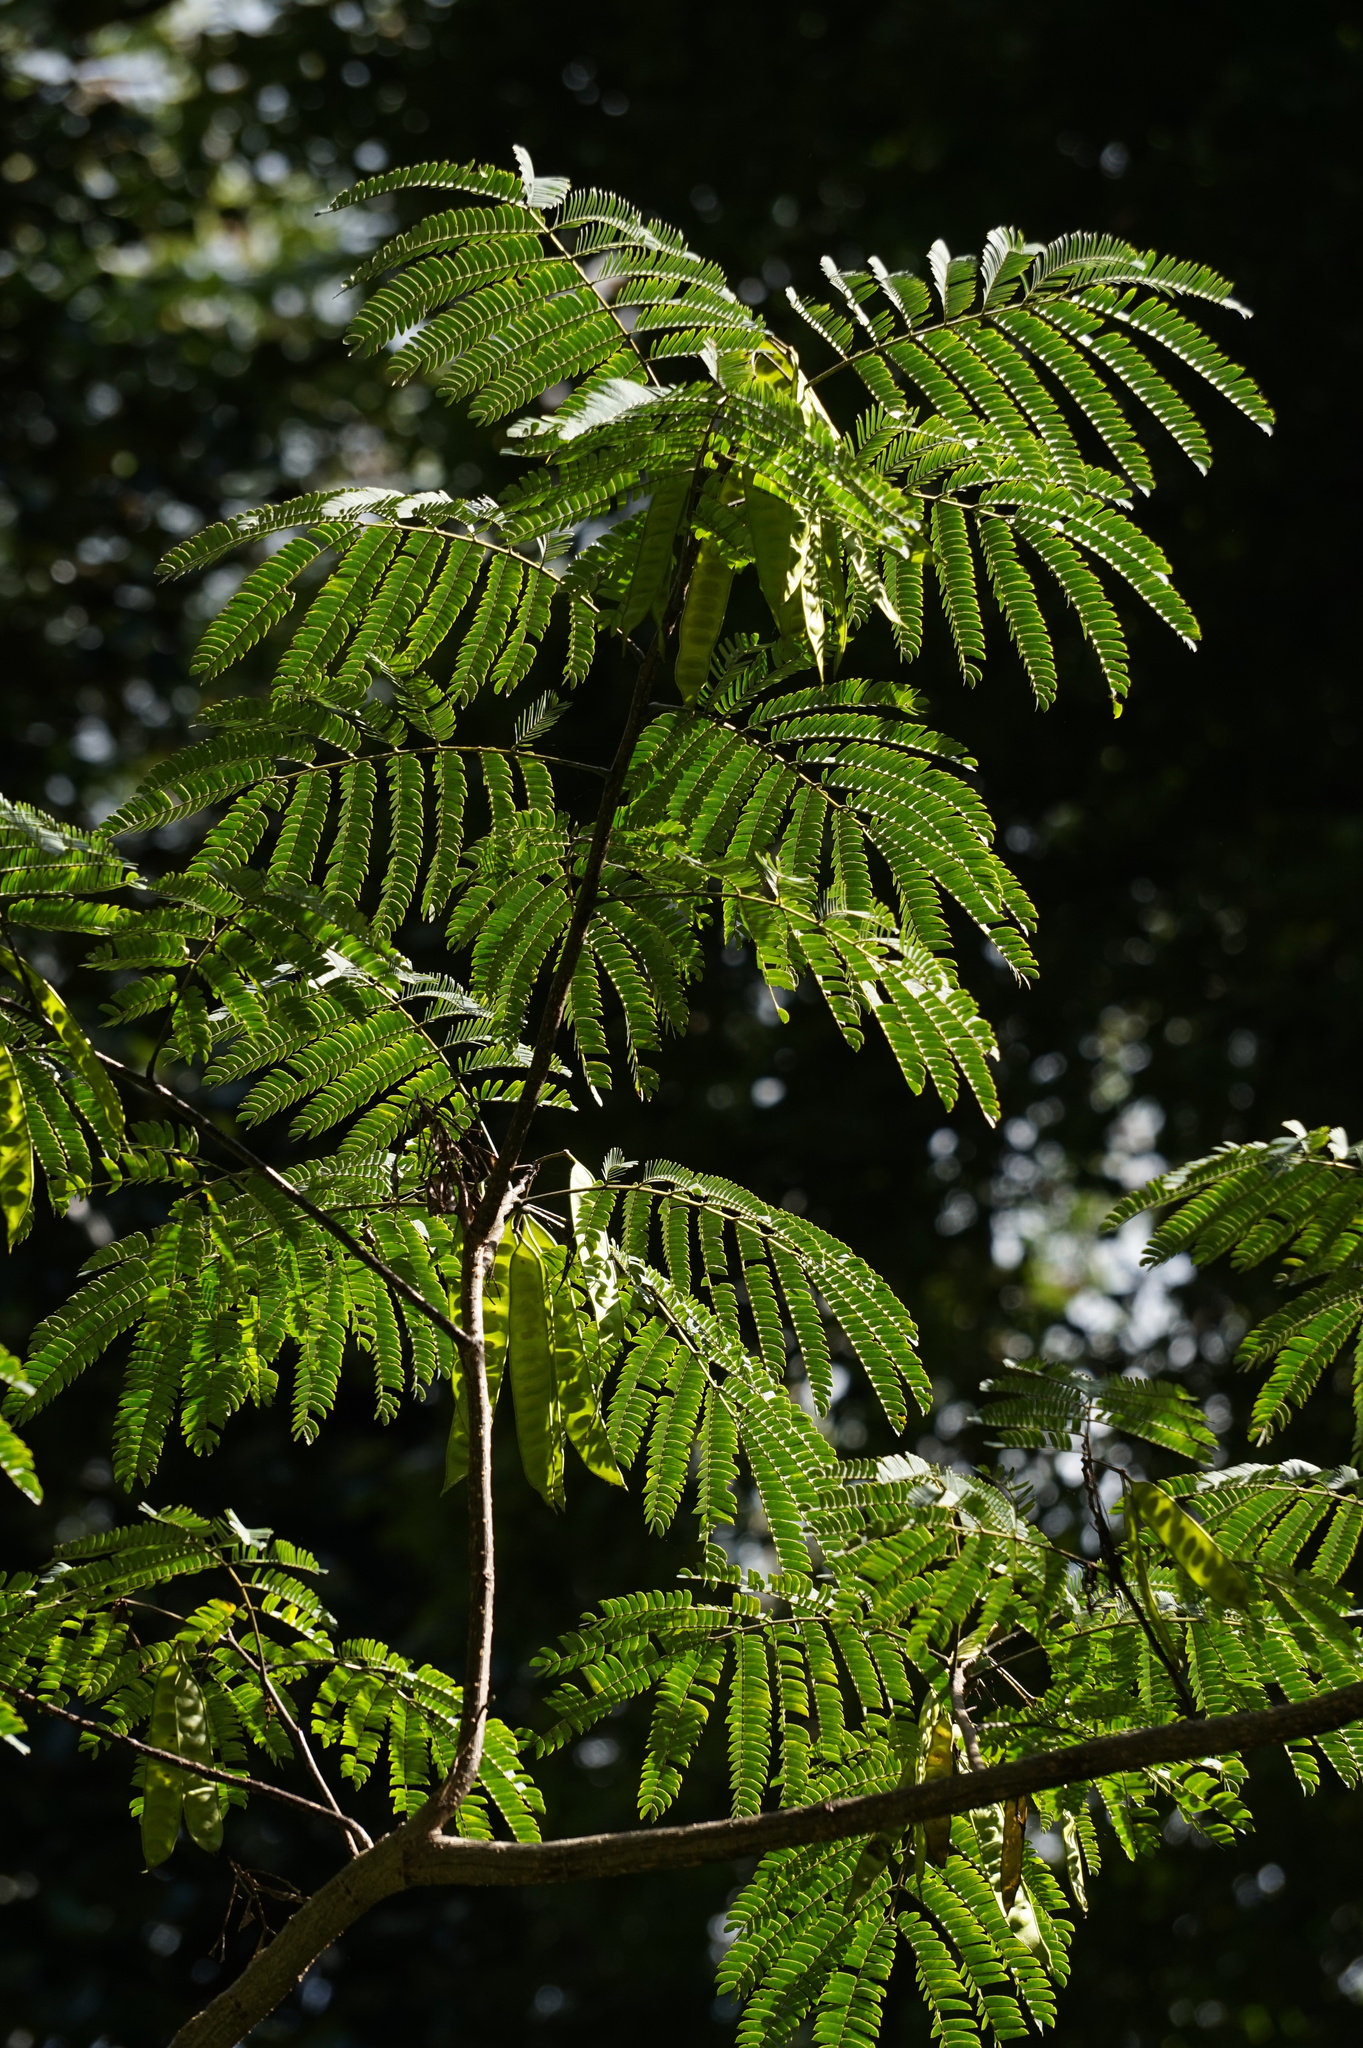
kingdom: Plantae
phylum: Tracheophyta
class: Magnoliopsida
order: Fabales
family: Fabaceae
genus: Albizia
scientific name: Albizia julibrissin
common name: Silktree
